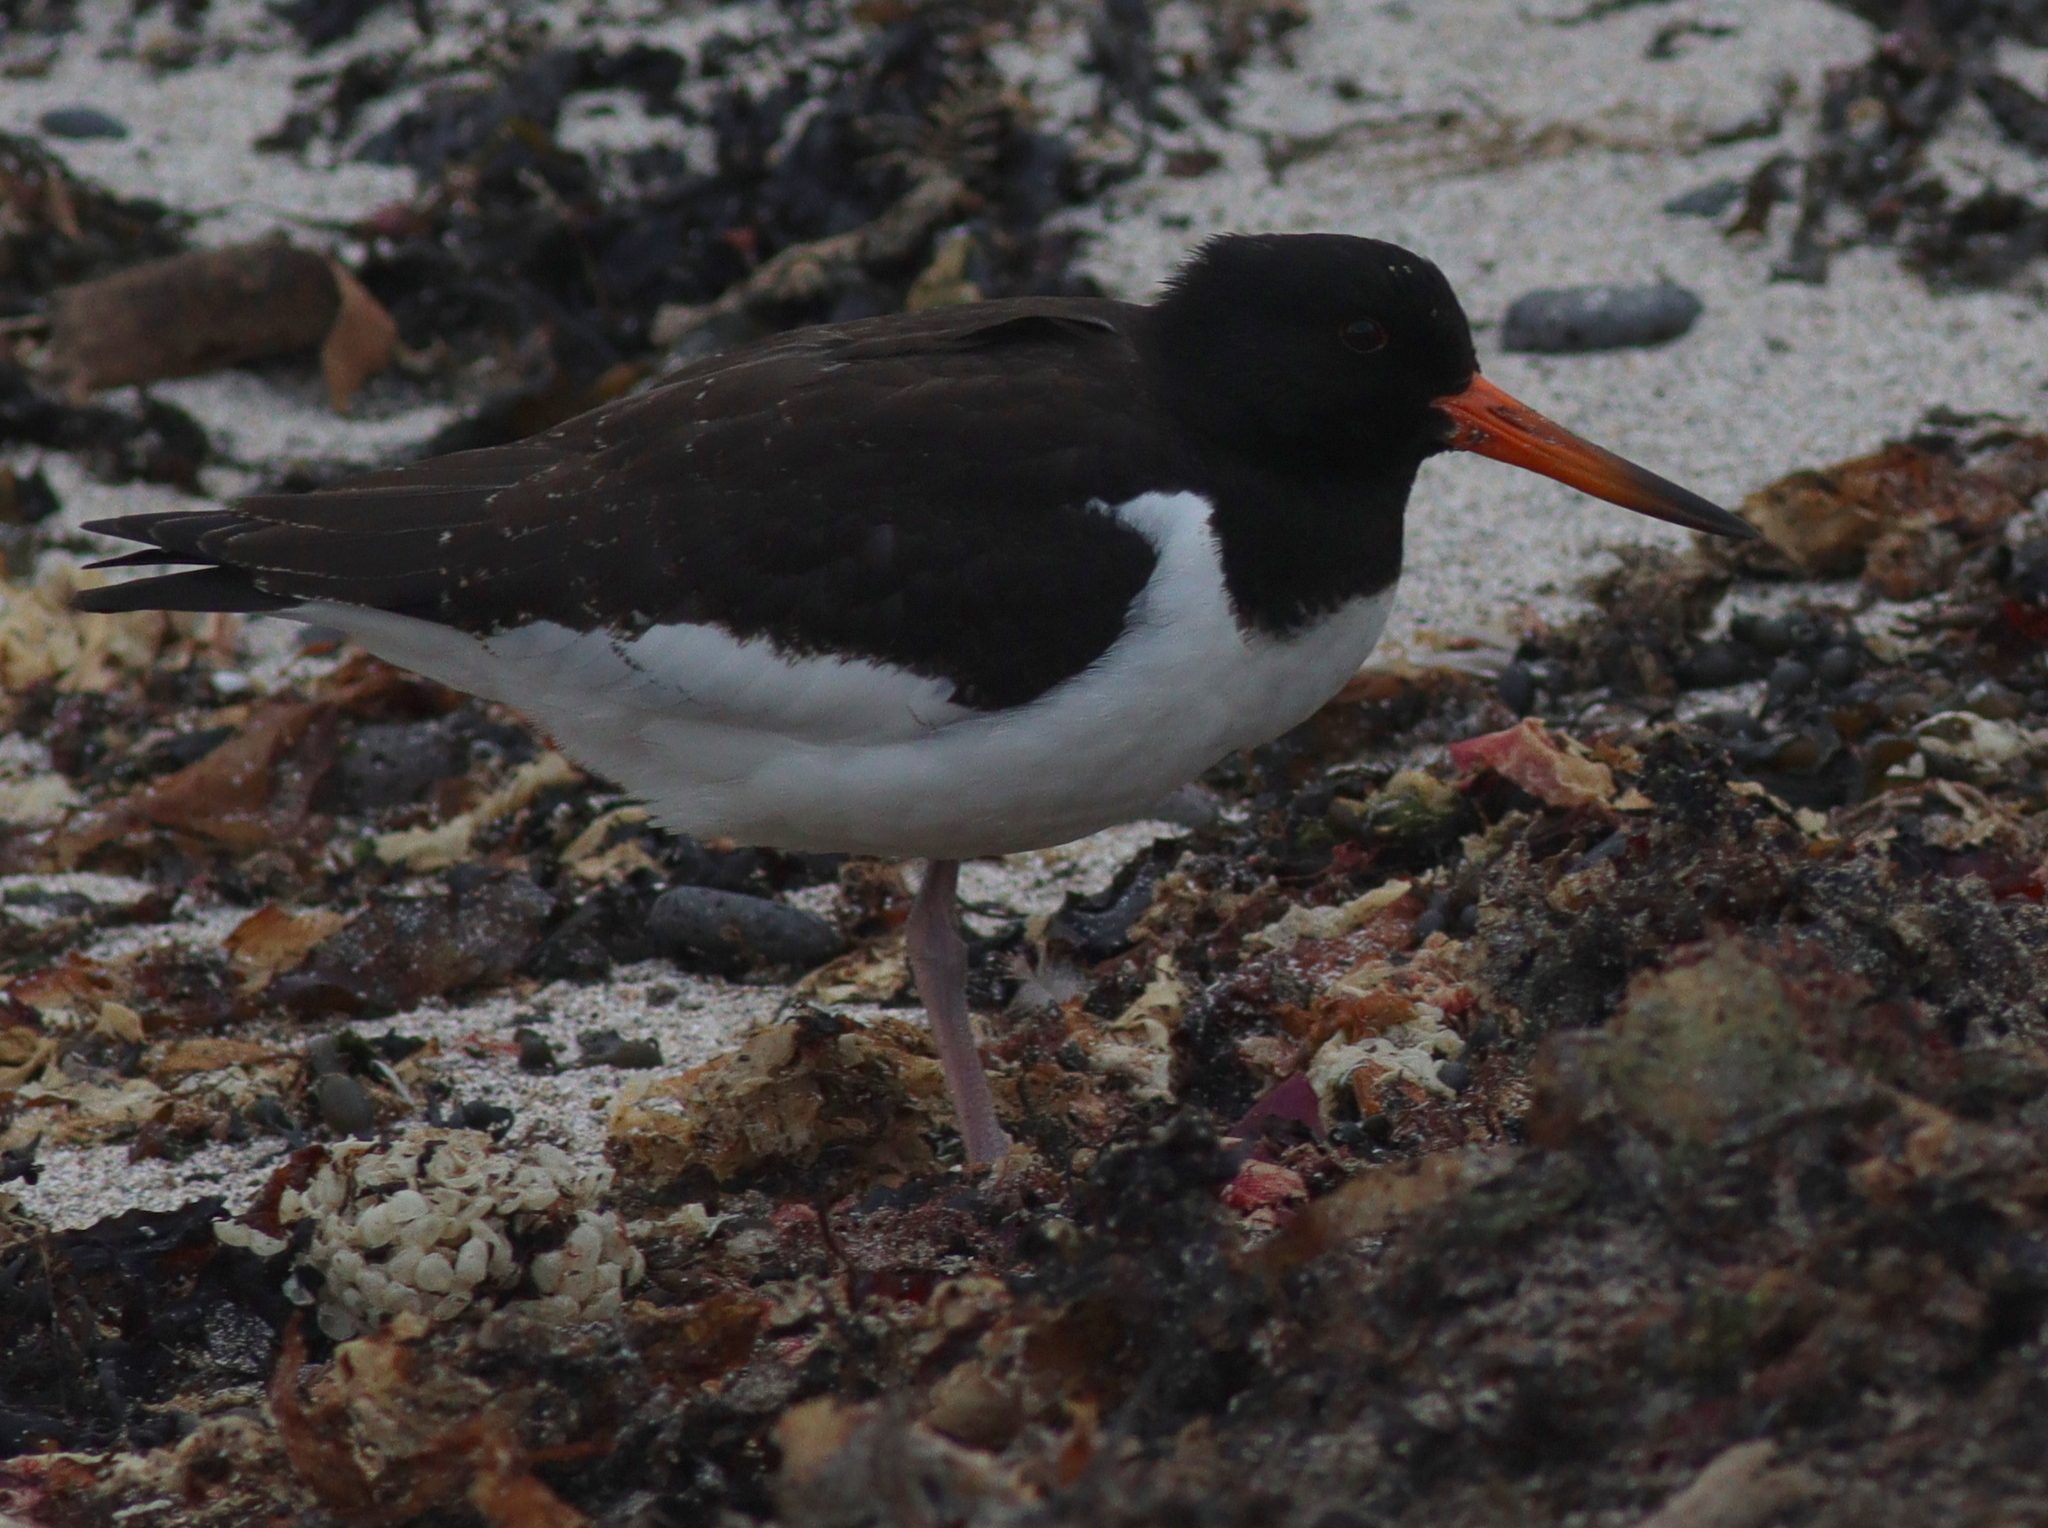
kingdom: Animalia
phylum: Chordata
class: Aves
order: Charadriiformes
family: Haematopodidae
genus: Haematopus
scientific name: Haematopus ostralegus
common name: Eurasian oystercatcher
